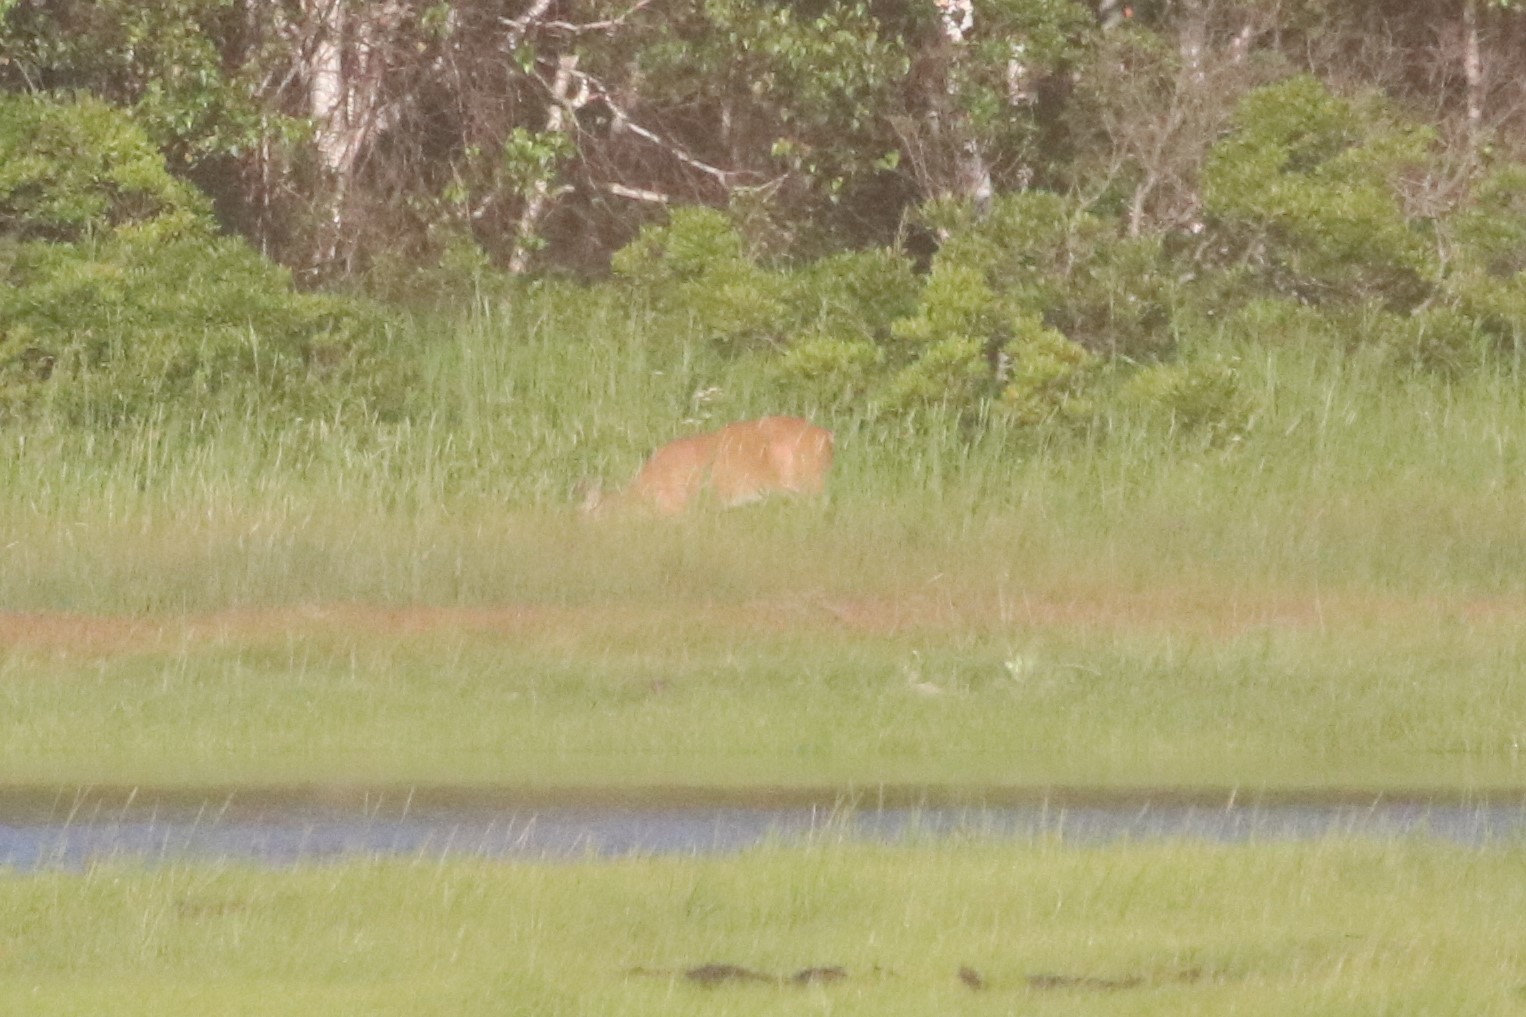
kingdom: Animalia
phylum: Chordata
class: Mammalia
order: Artiodactyla
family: Cervidae
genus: Odocoileus
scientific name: Odocoileus virginianus
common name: White-tailed deer
